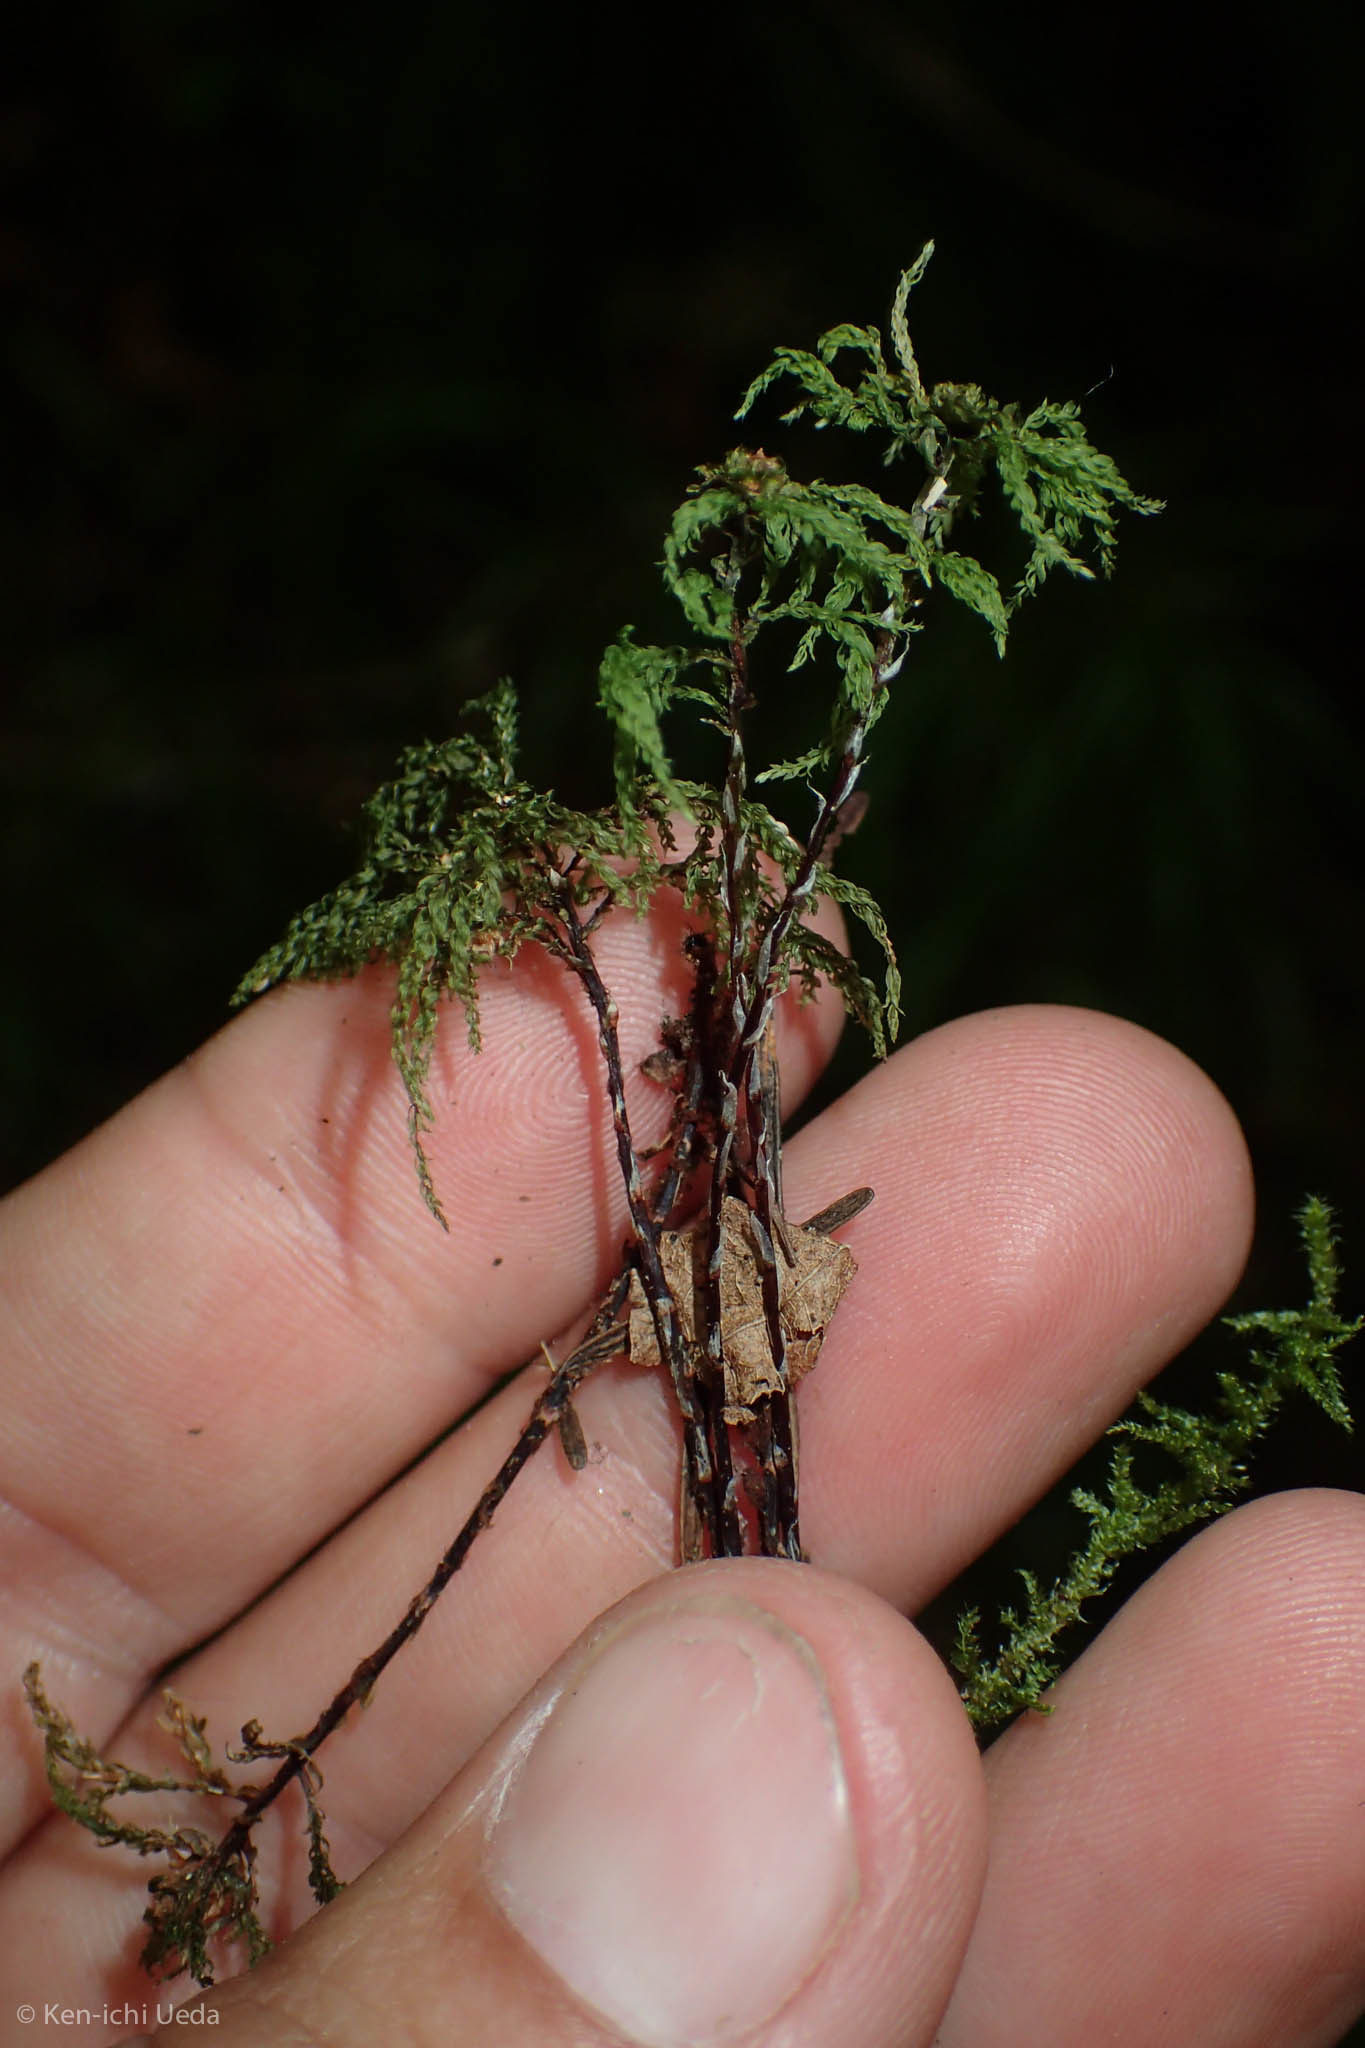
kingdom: Plantae
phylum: Bryophyta
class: Bryopsida
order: Bryales
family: Mniaceae
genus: Leucolepis
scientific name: Leucolepis acanthoneura
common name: Leucolepis umbrella moss
